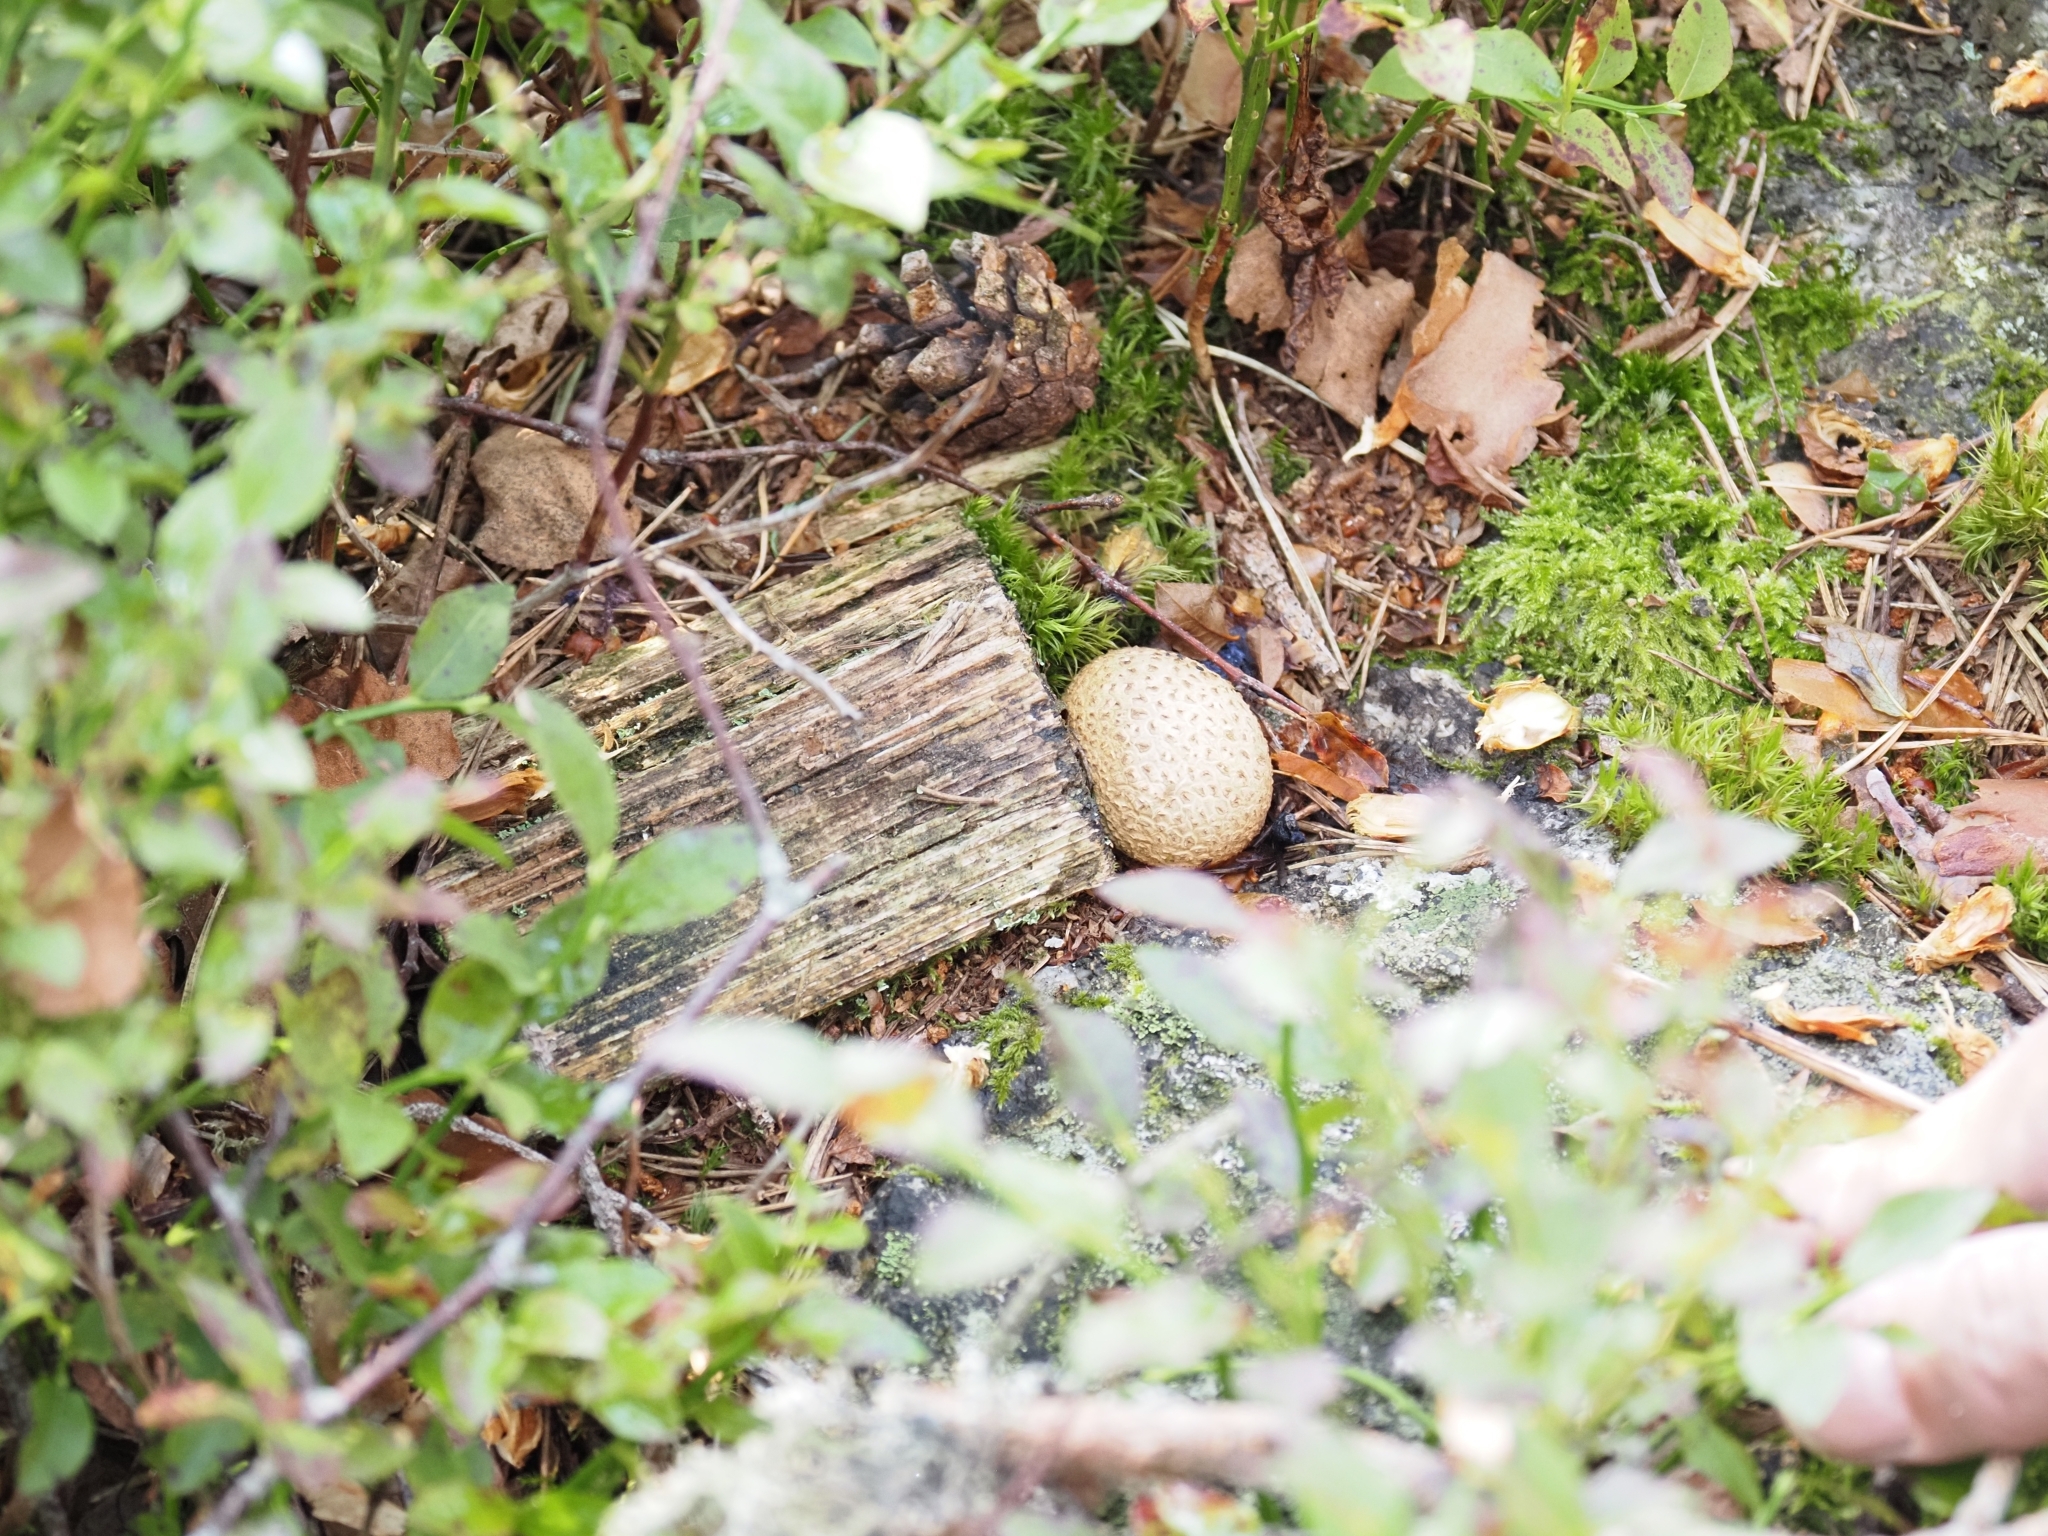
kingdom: Fungi
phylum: Basidiomycota
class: Agaricomycetes
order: Boletales
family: Sclerodermataceae
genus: Scleroderma
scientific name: Scleroderma citrinum
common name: Common earthball
